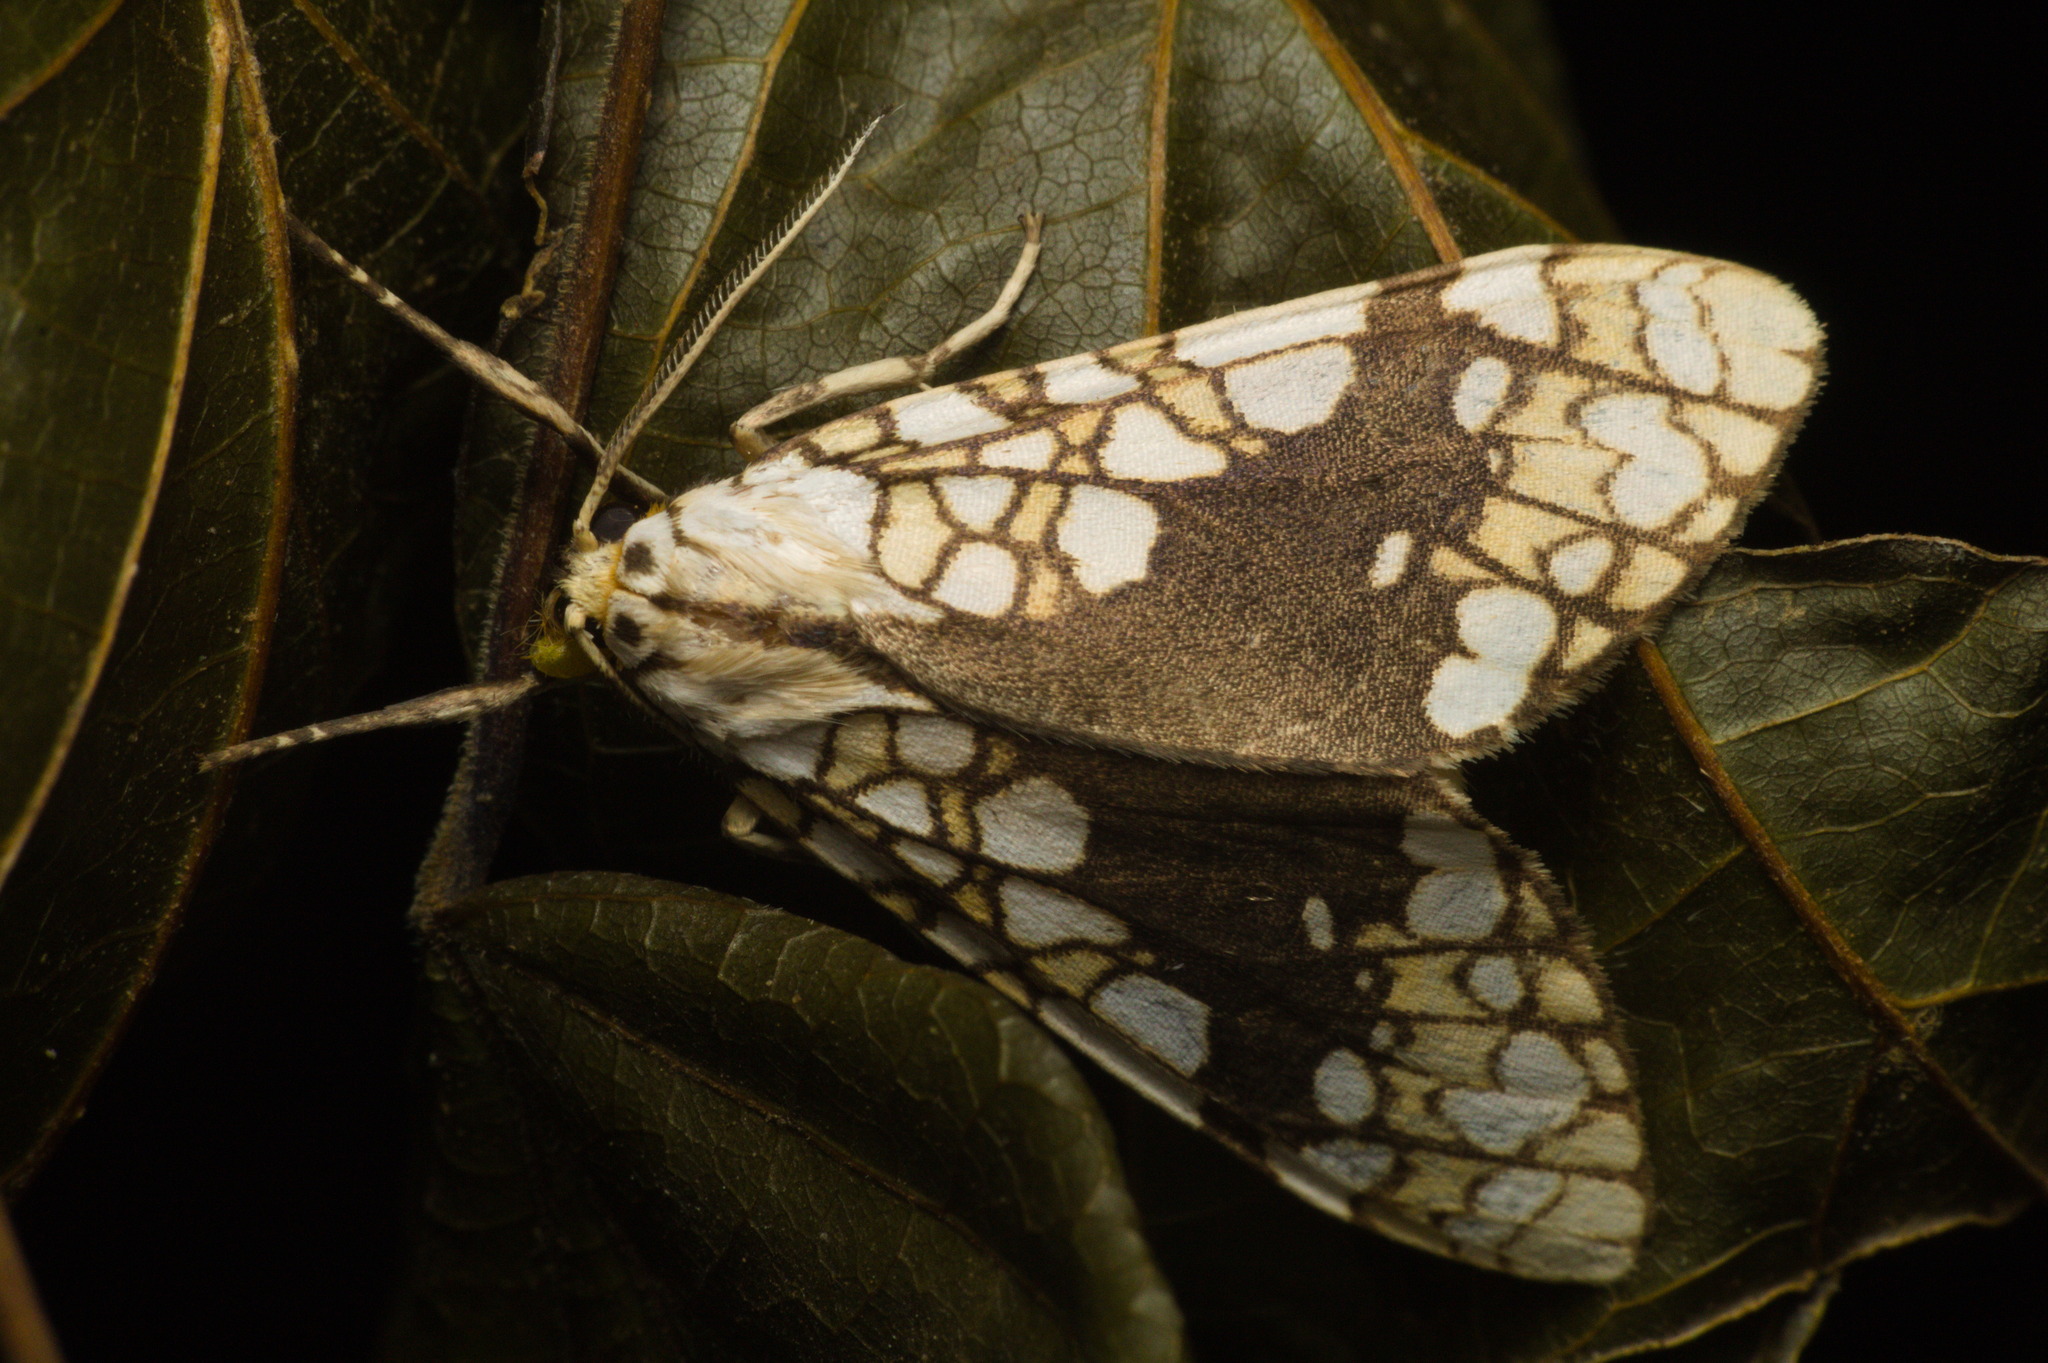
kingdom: Animalia
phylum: Arthropoda
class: Insecta
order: Lepidoptera
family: Erebidae
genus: Tessella
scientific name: Tessella sertata
